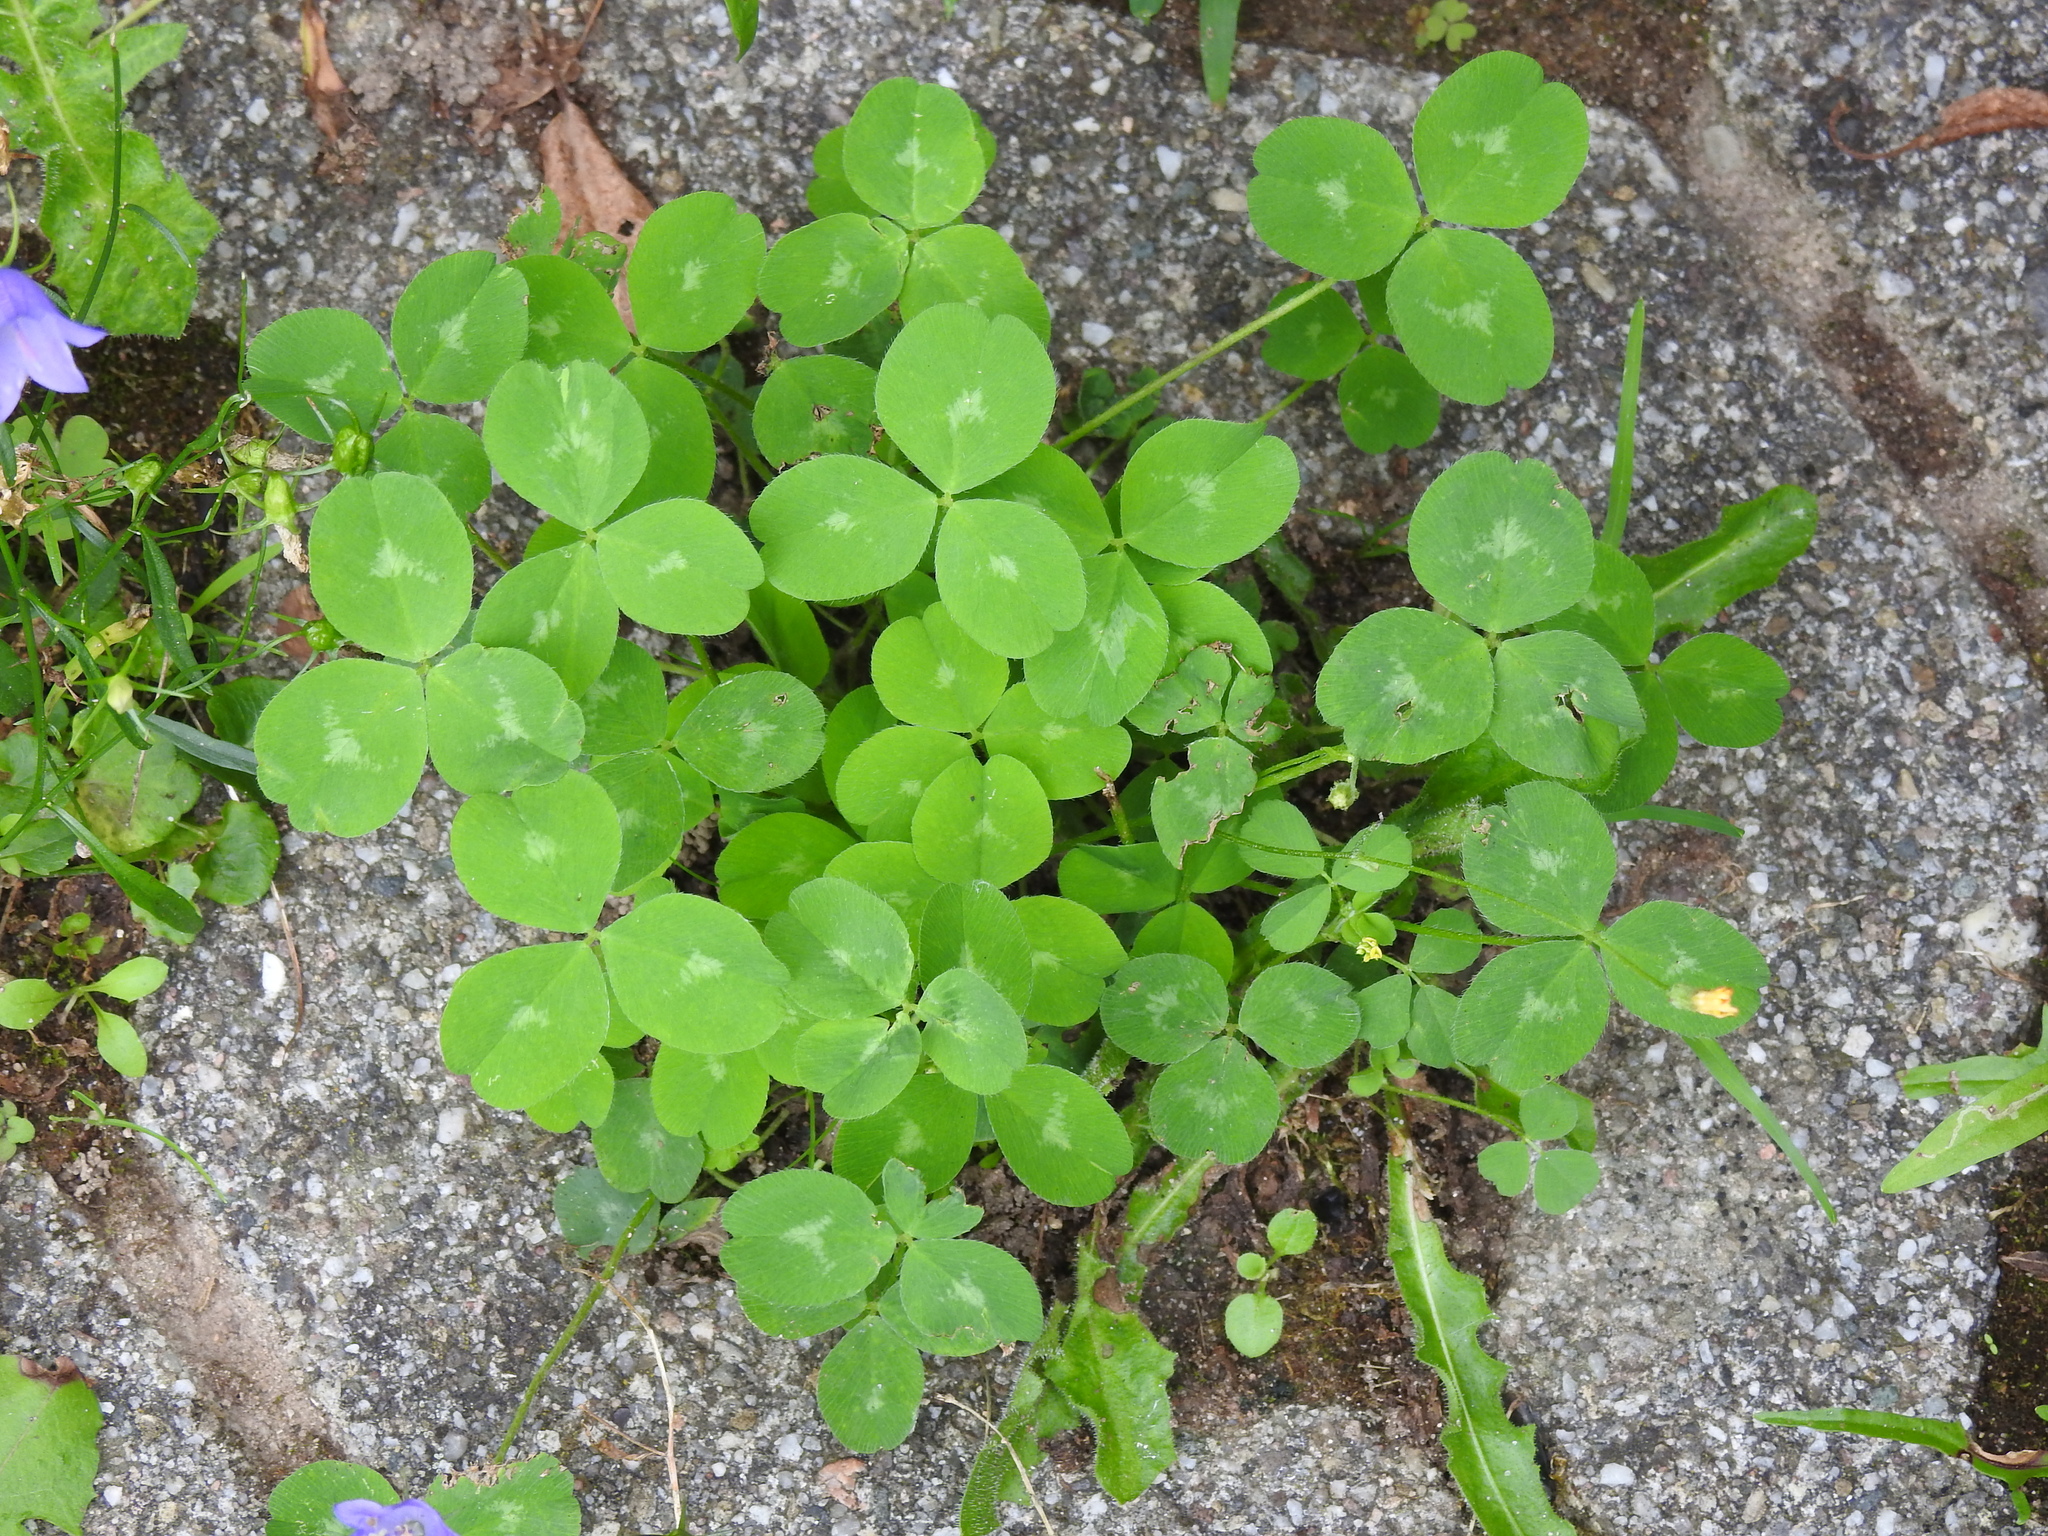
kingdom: Plantae
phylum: Tracheophyta
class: Magnoliopsida
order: Fabales
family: Fabaceae
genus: Trifolium
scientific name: Trifolium pratense
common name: Red clover
